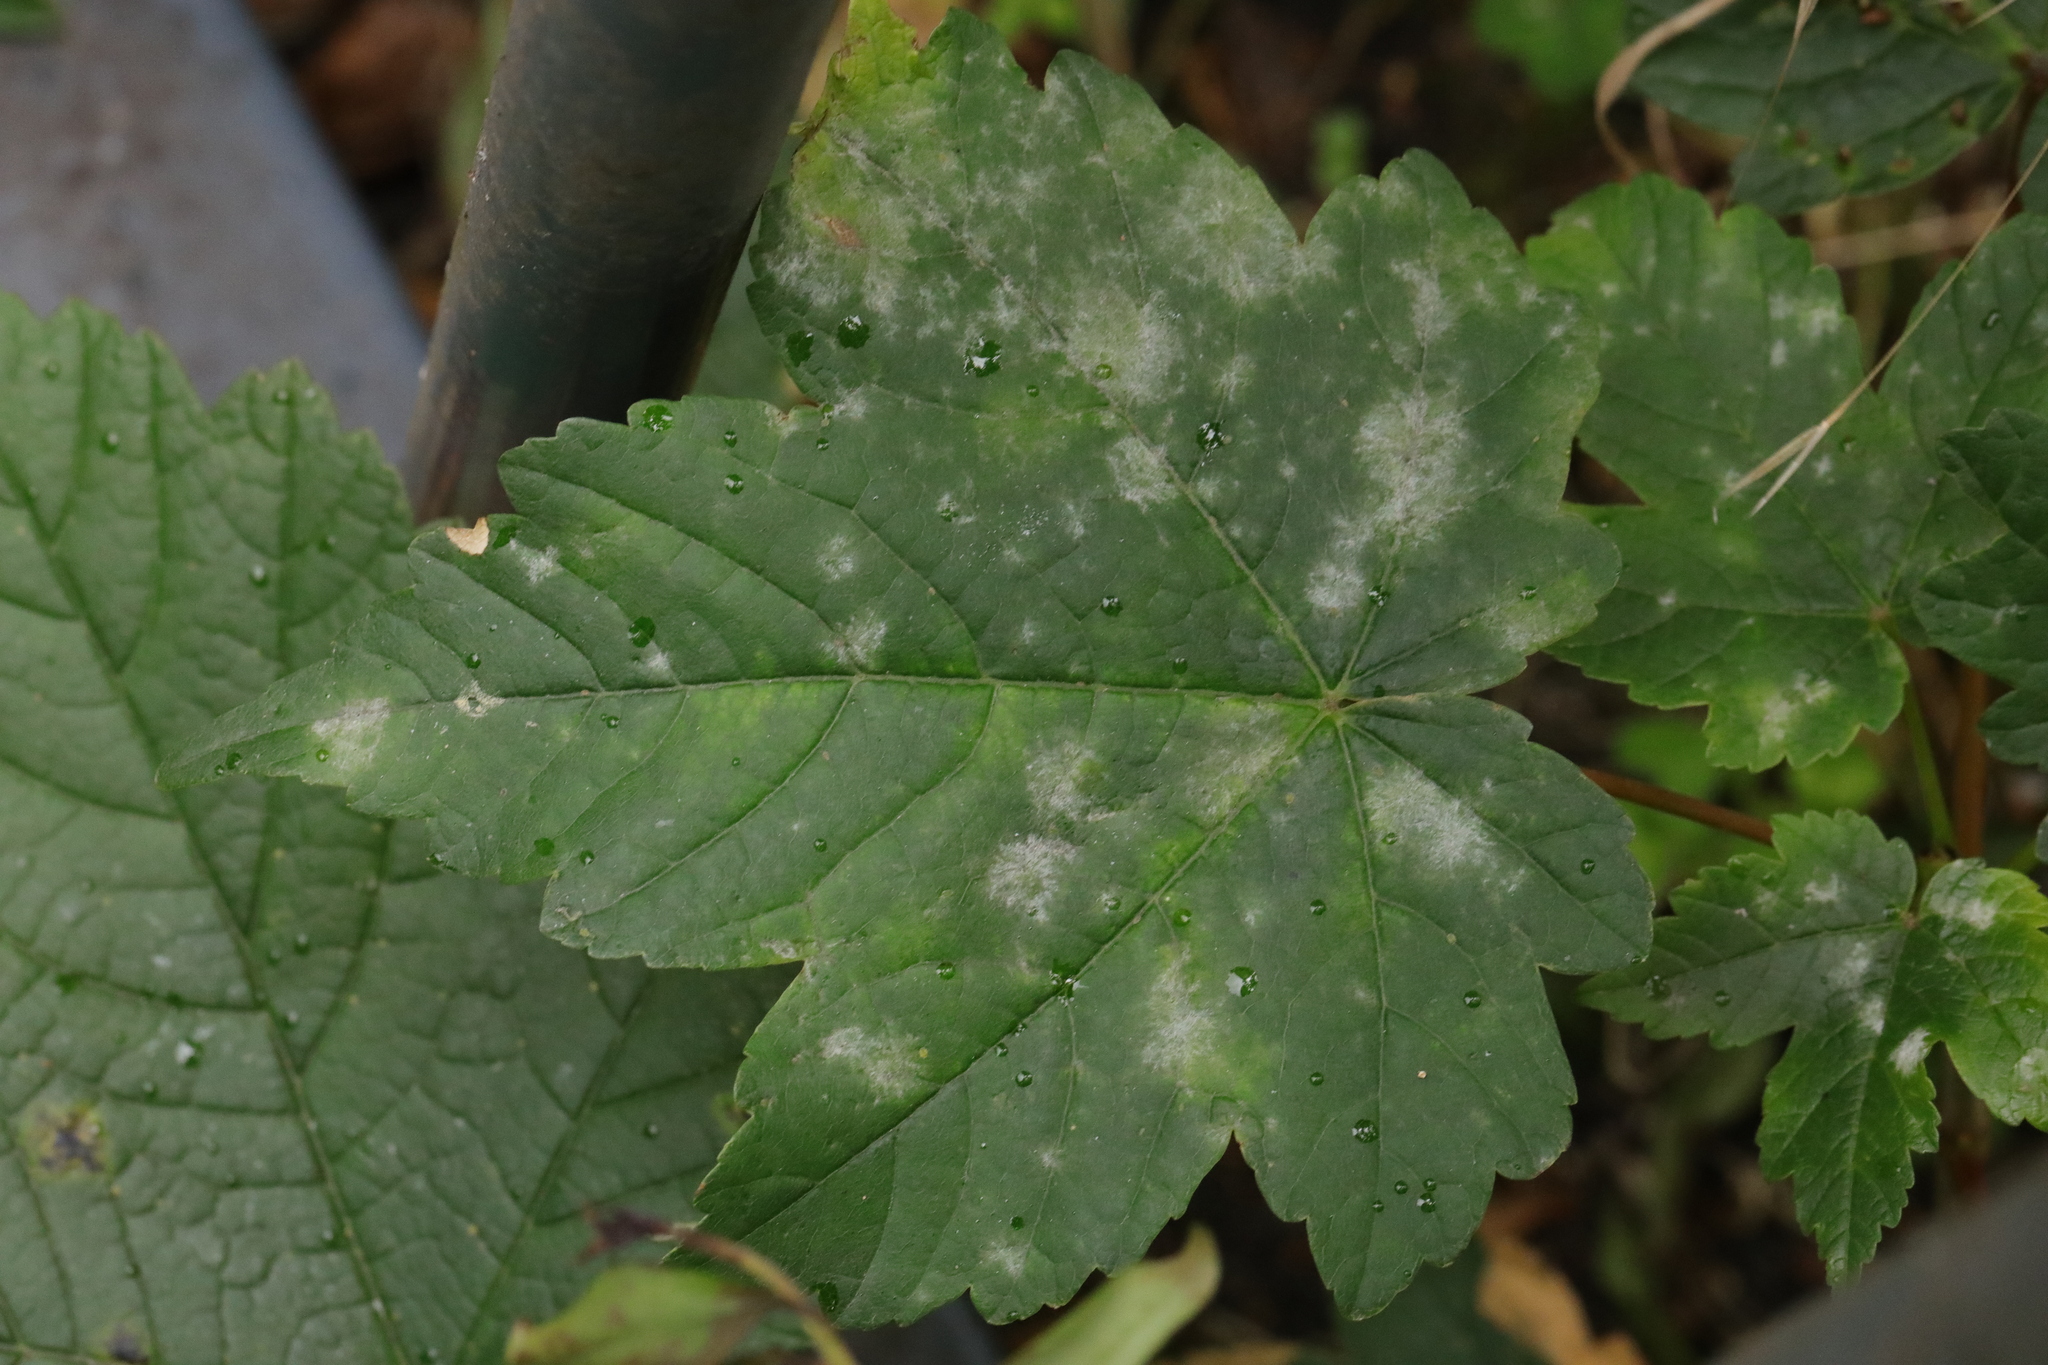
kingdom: Fungi
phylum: Ascomycota
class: Leotiomycetes
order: Helotiales
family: Erysiphaceae
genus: Sawadaea
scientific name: Sawadaea bicornis
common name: Maple mildew
